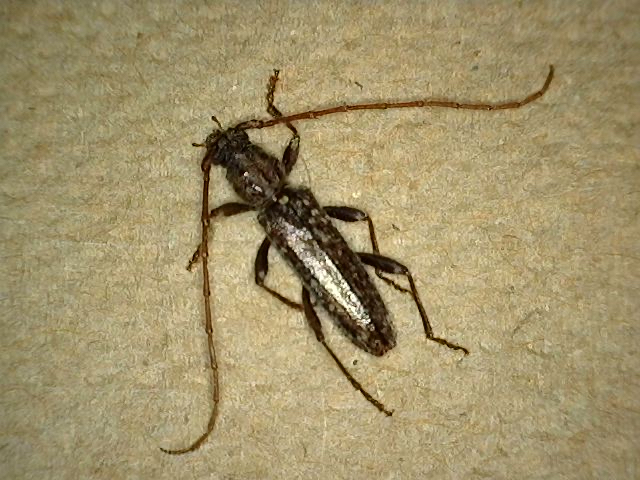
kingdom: Animalia
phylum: Arthropoda
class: Insecta
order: Coleoptera
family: Cerambycidae
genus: Anelaphus
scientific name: Anelaphus pumilus
